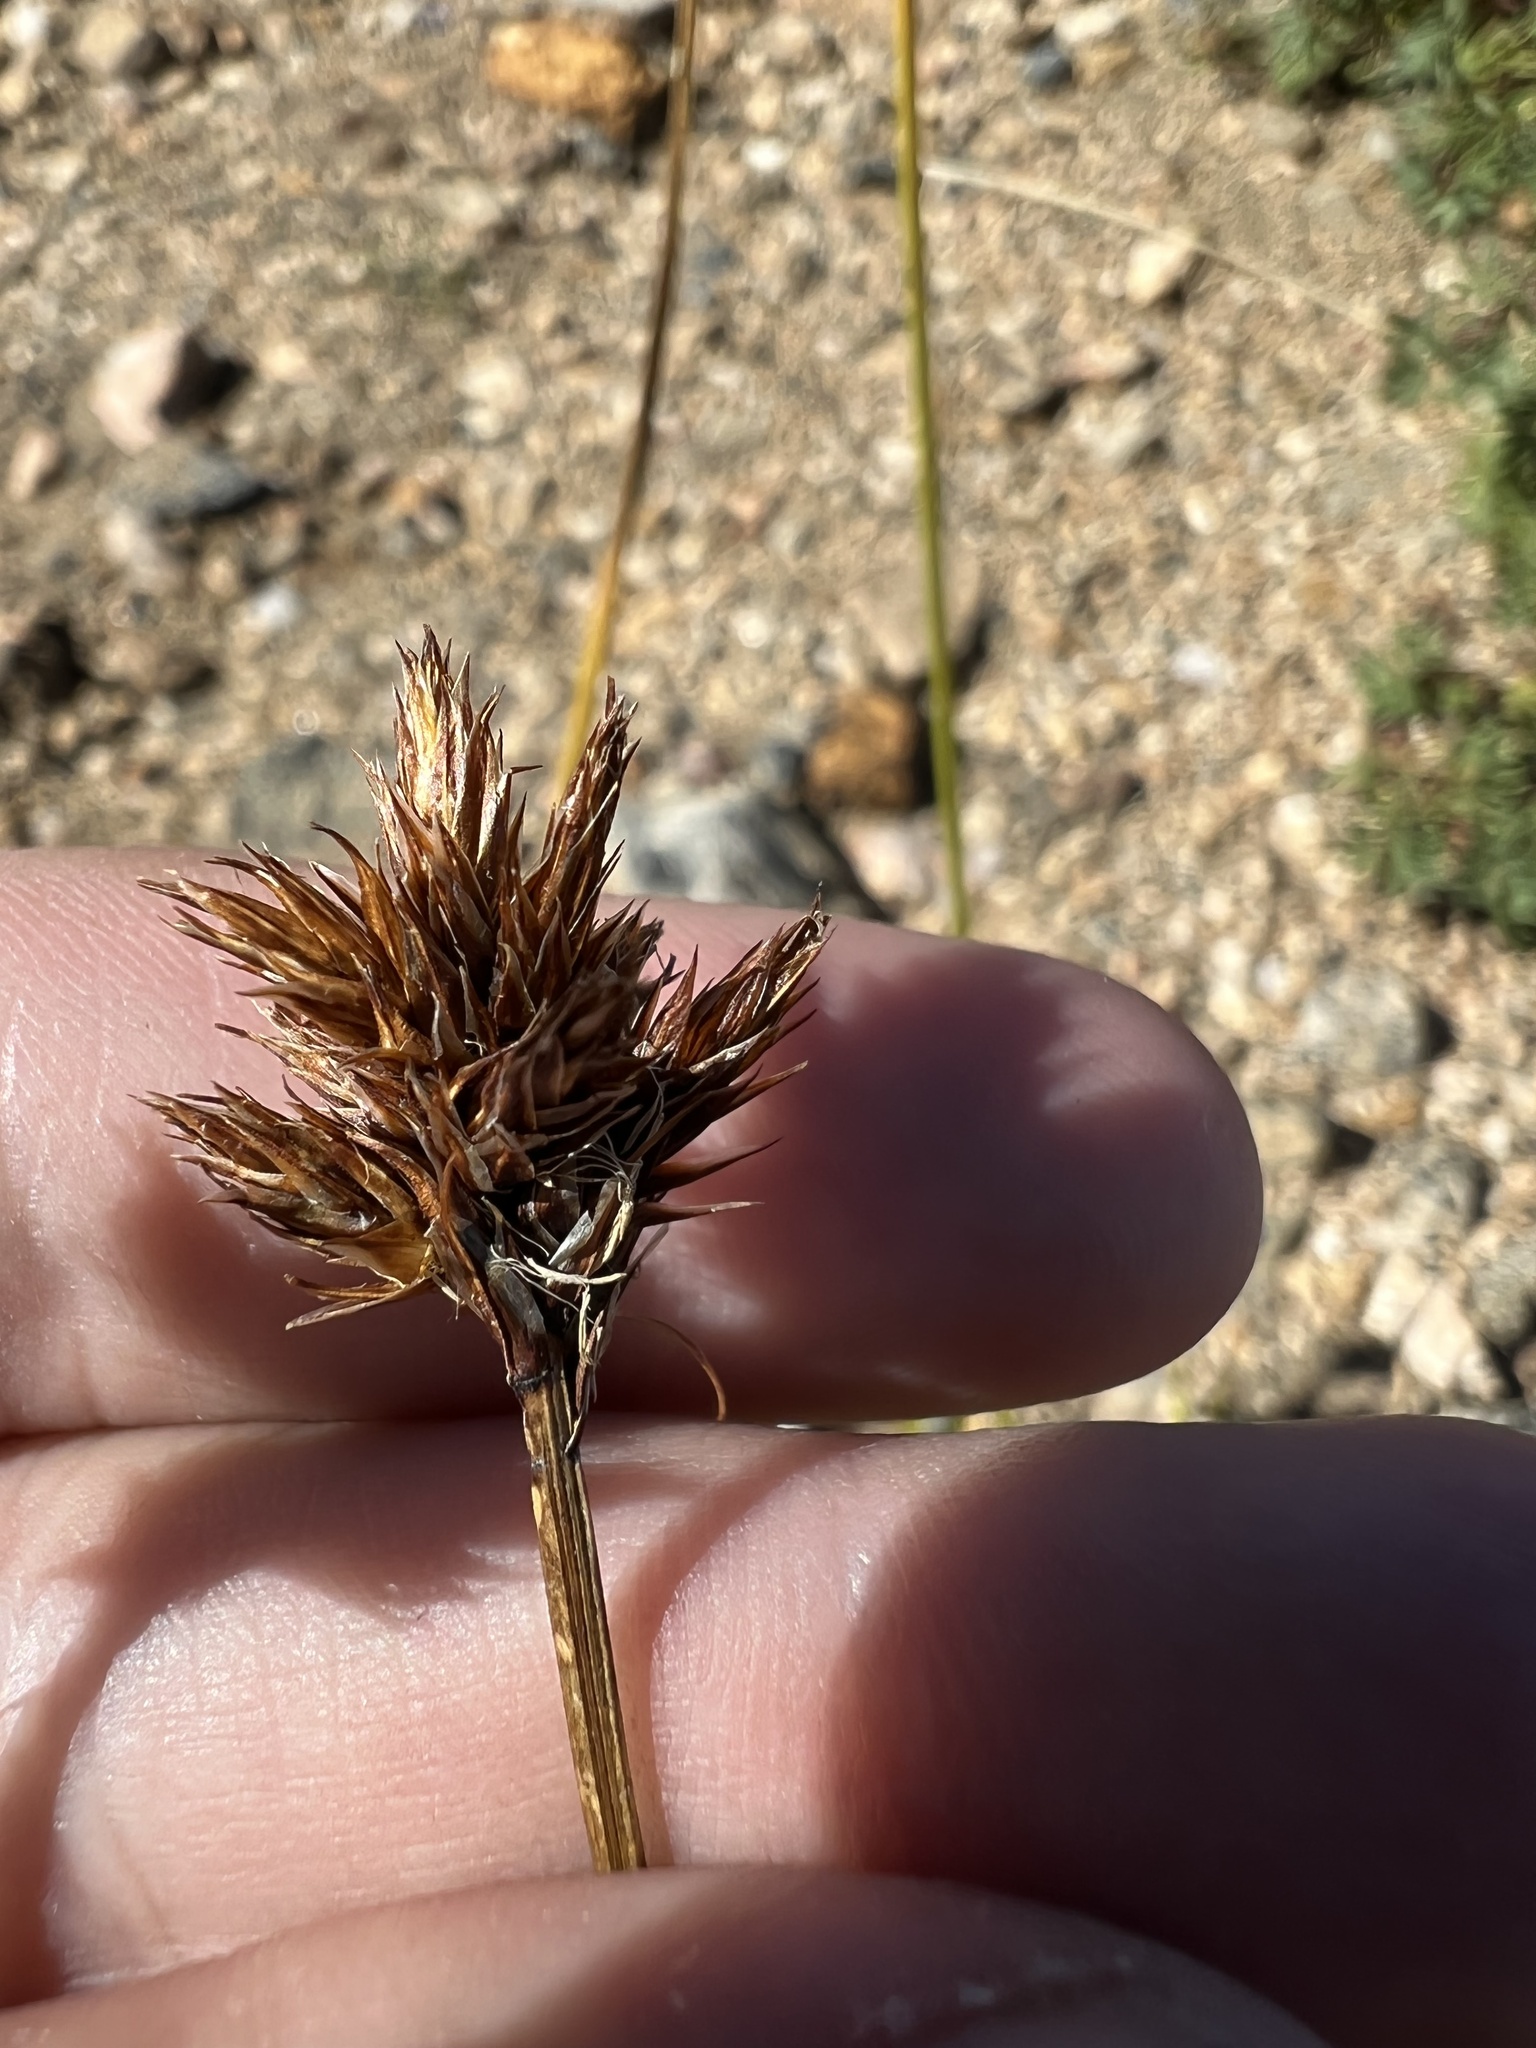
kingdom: Plantae
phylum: Tracheophyta
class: Liliopsida
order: Poales
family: Cyperaceae
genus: Carex
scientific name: Carex haydeniana
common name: Cloud sedge
